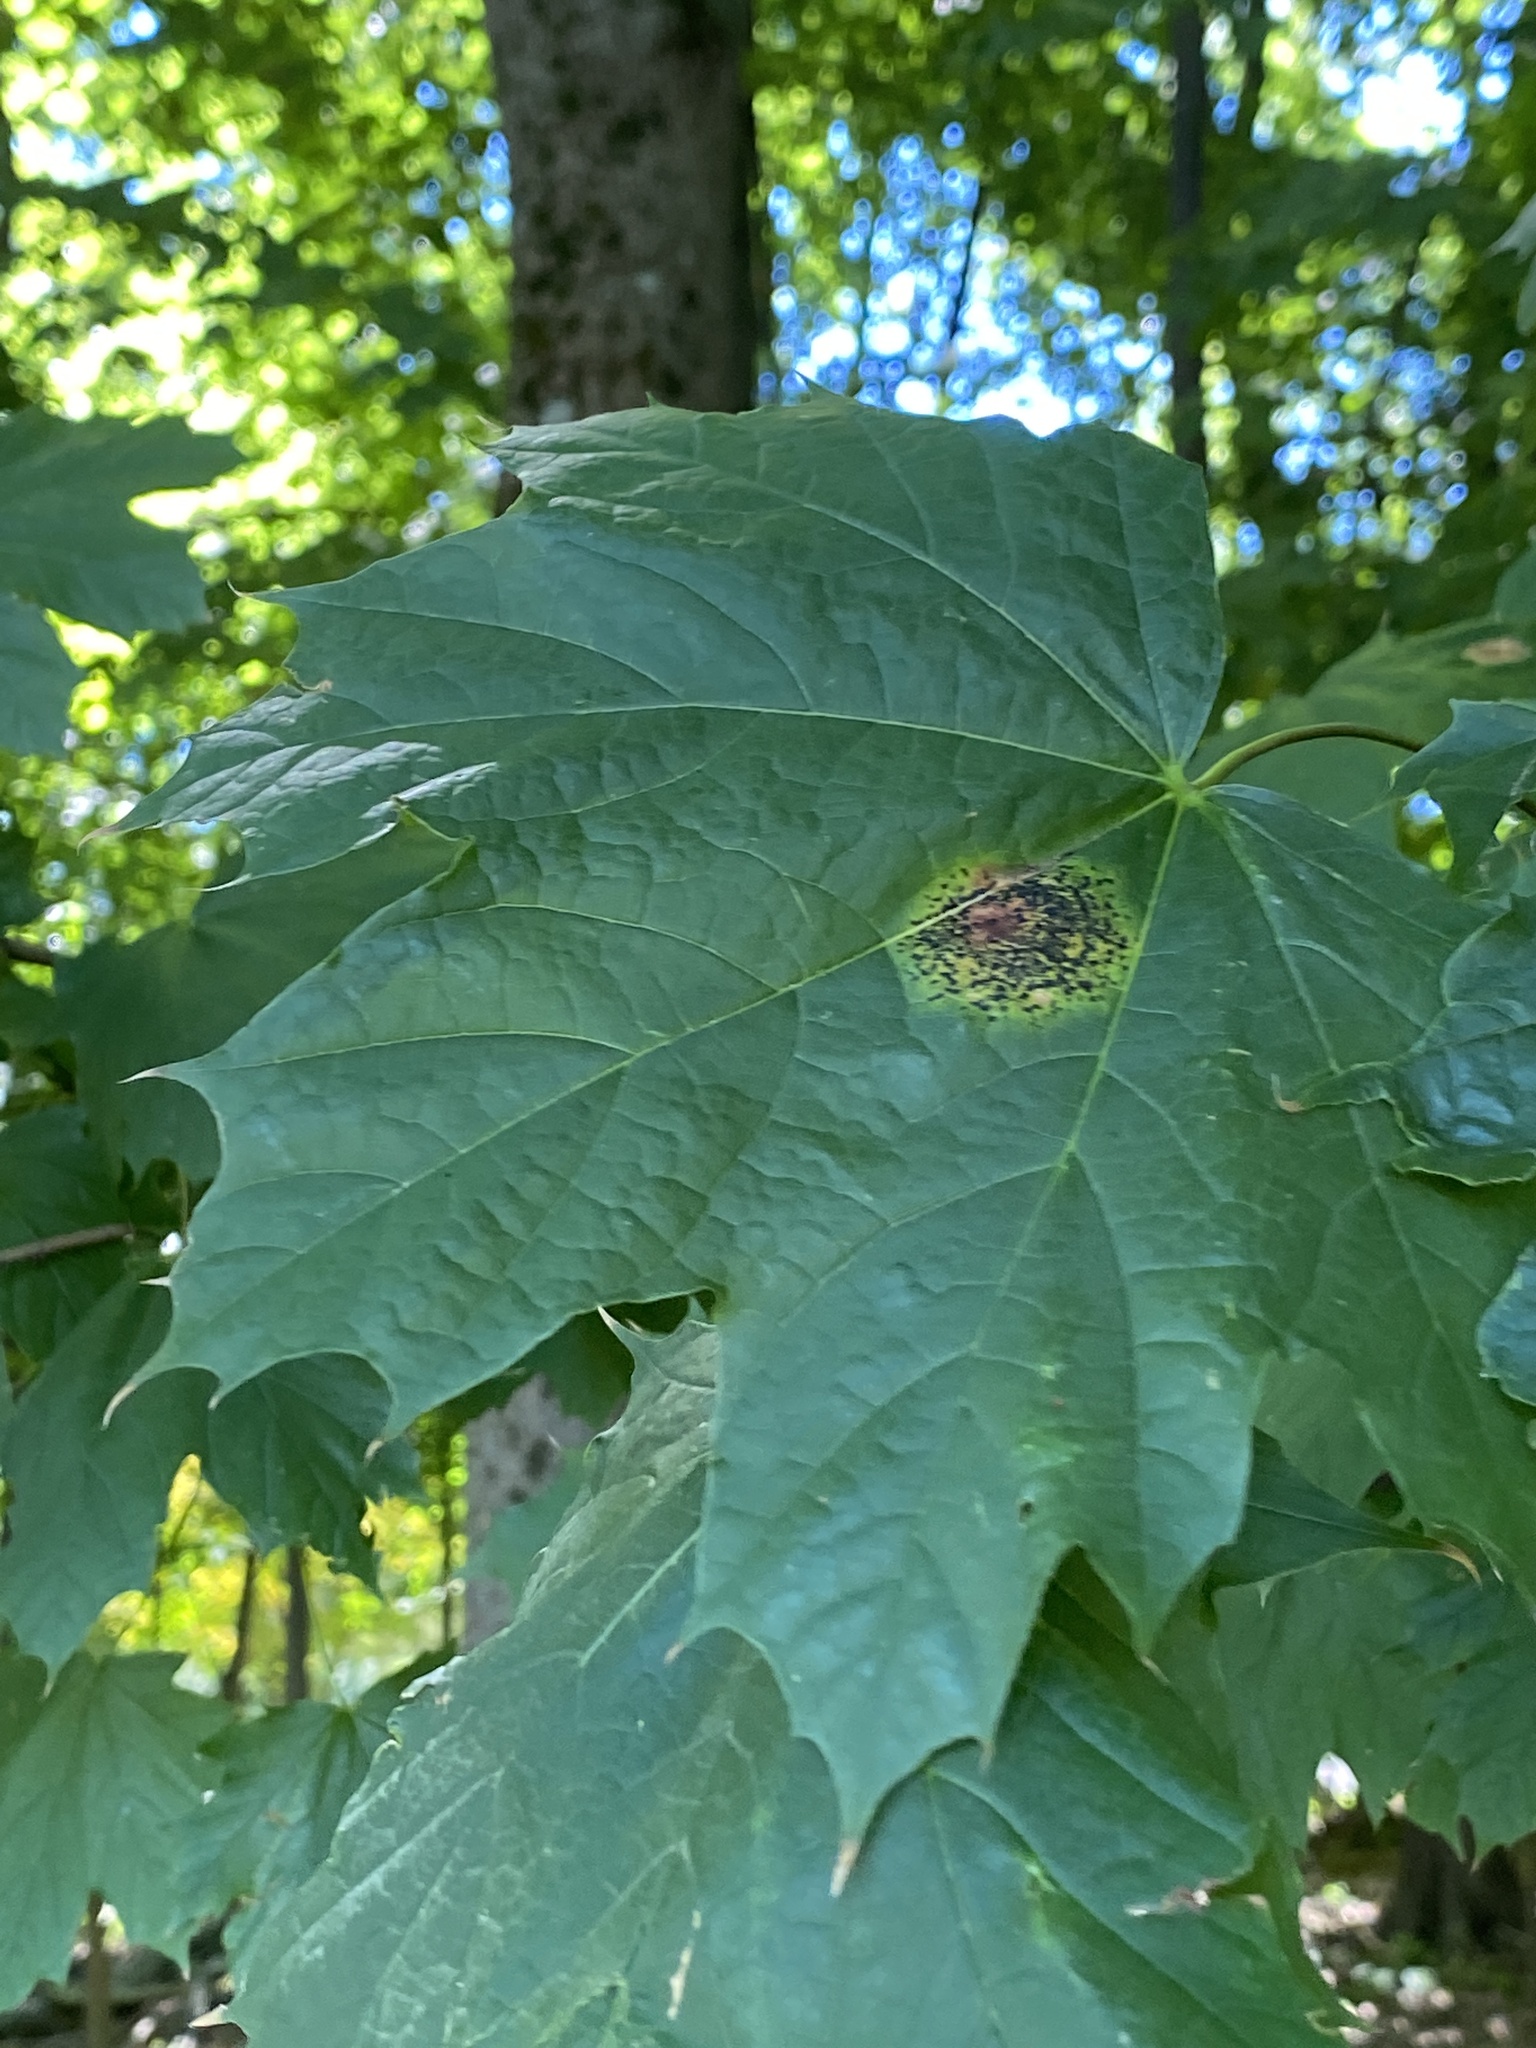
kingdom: Fungi
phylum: Ascomycota
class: Leotiomycetes
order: Rhytismatales
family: Rhytismataceae
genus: Rhytisma
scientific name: Rhytisma acerinum
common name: European tar spot
